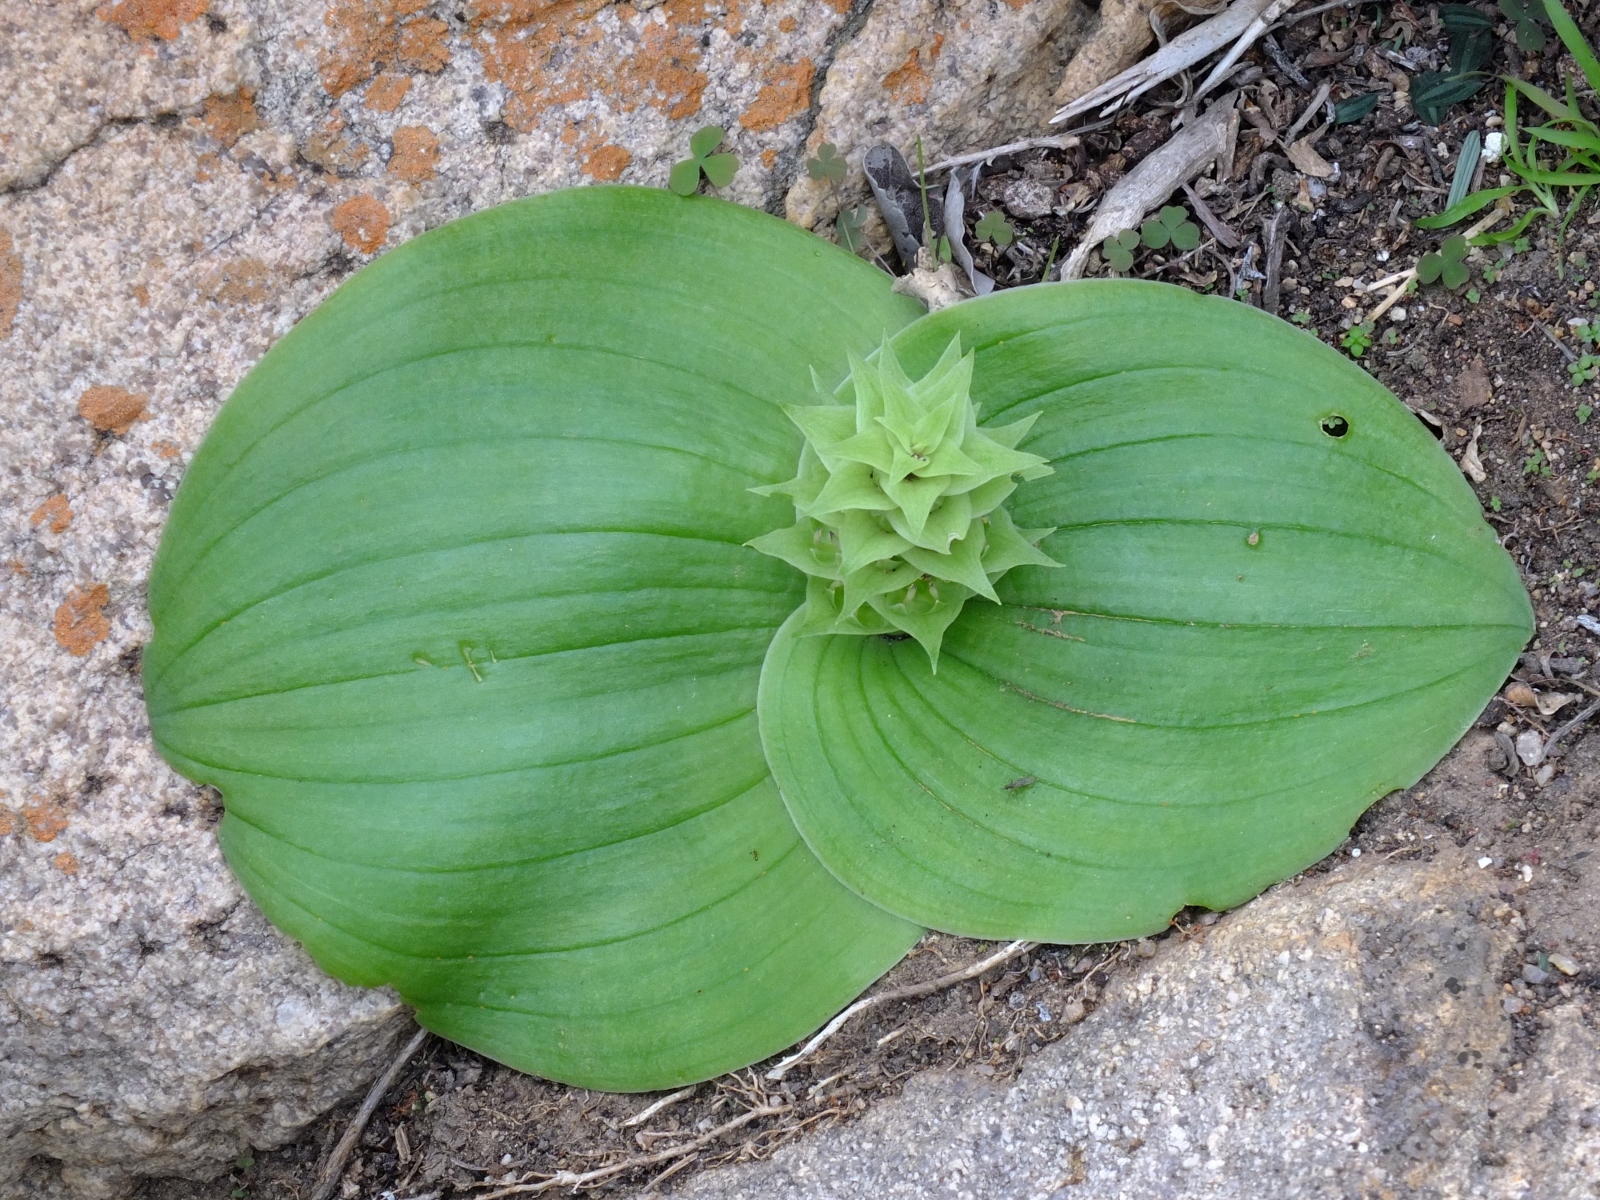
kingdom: Plantae
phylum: Tracheophyta
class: Liliopsida
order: Asparagales
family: Asparagaceae
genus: Massonia
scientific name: Massonia bifolia
